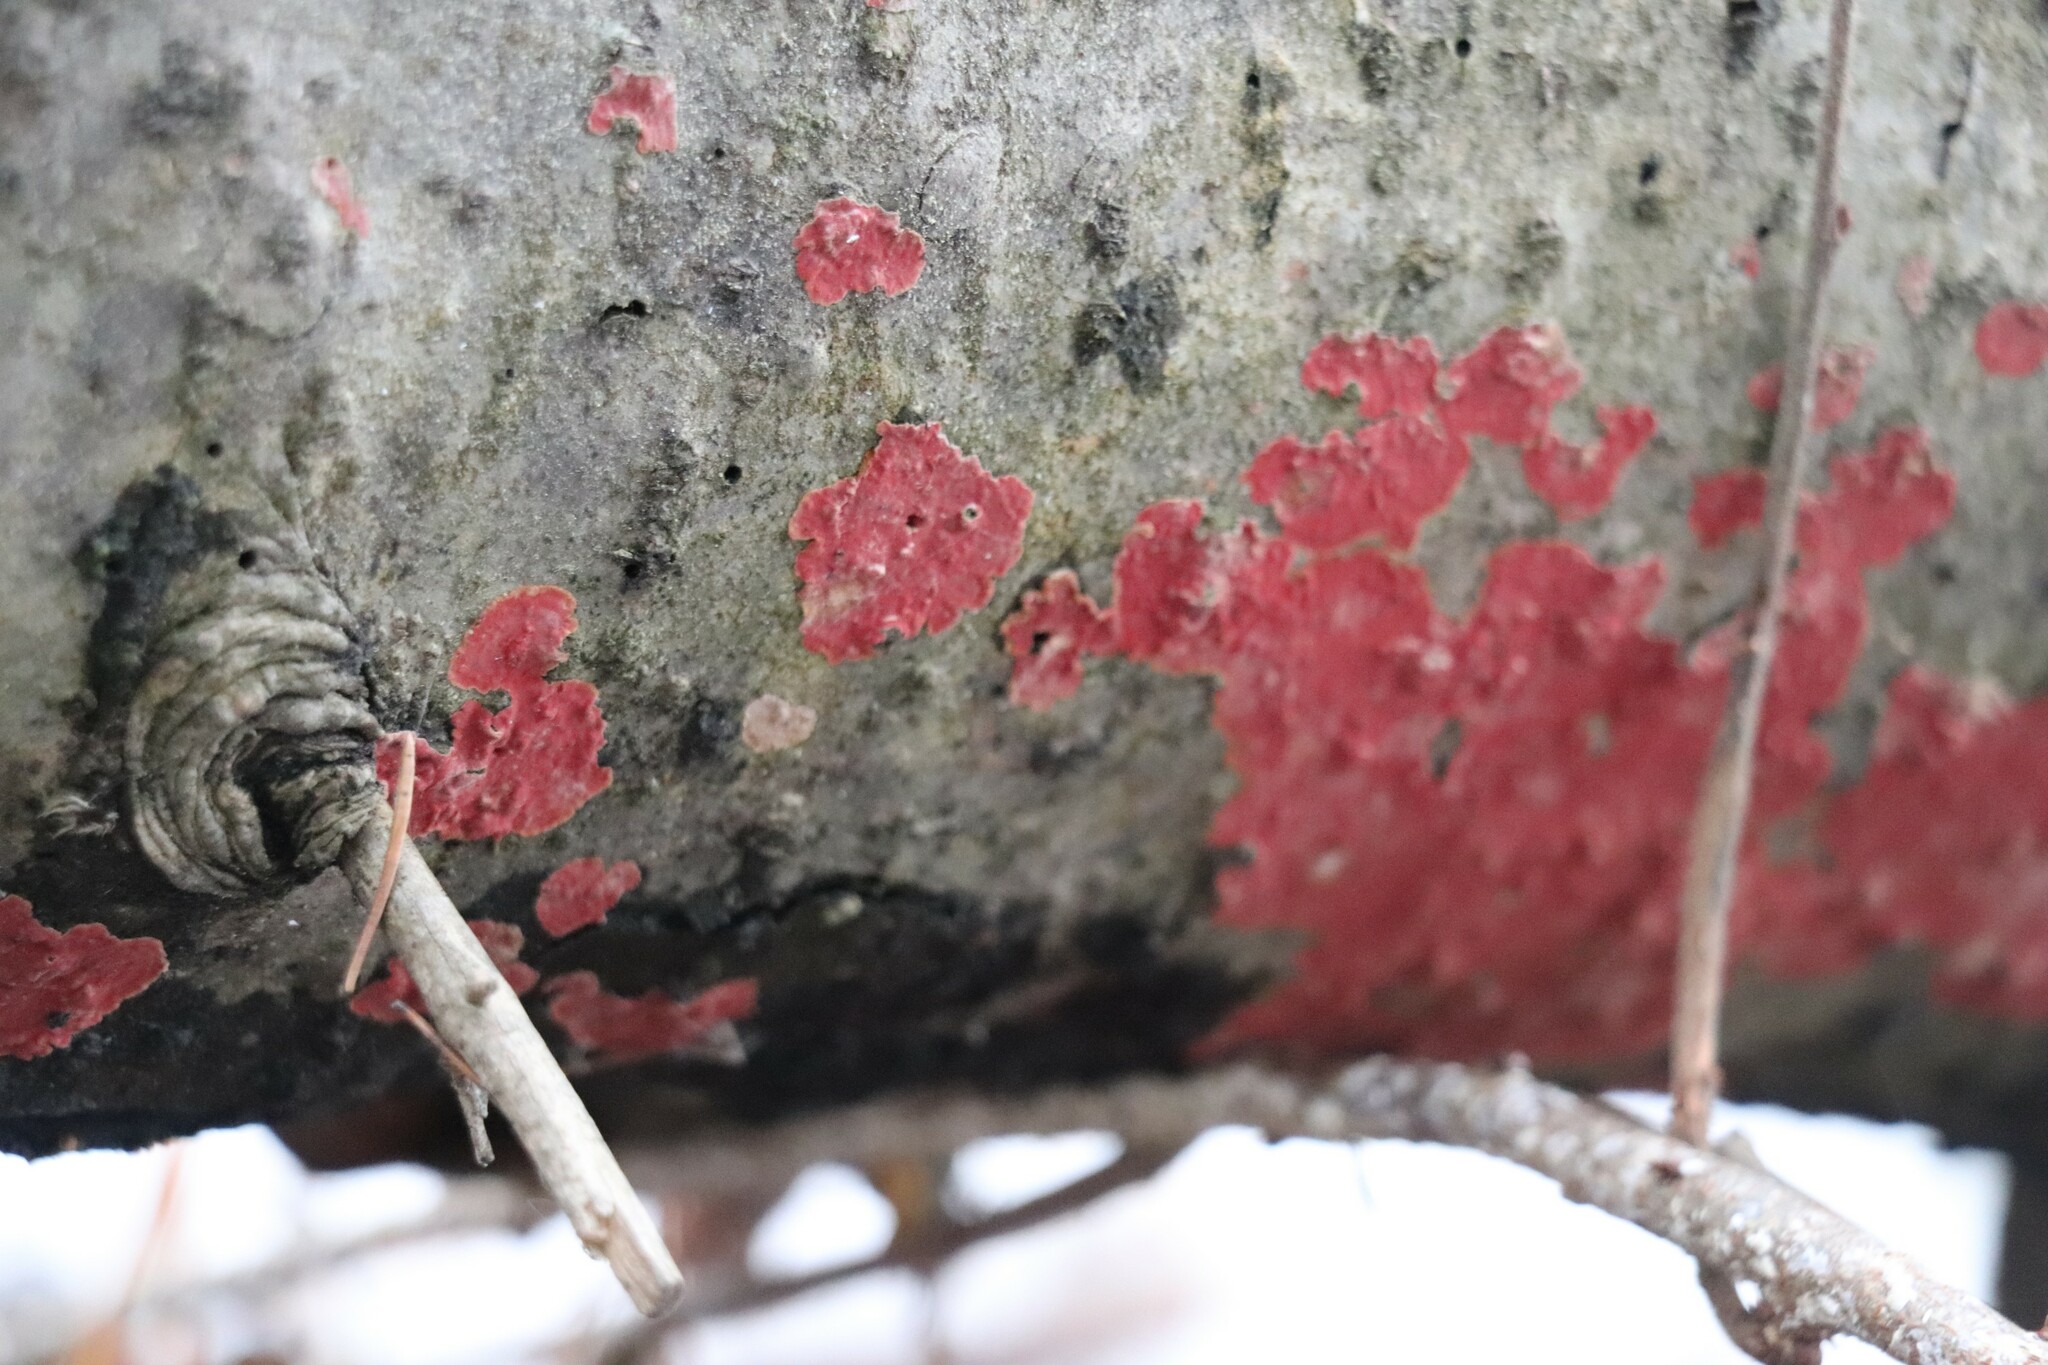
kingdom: Fungi
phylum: Basidiomycota
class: Agaricomycetes
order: Hymenochaetales
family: Hymenochaetaceae
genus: Hymenochaete
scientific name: Hymenochaete cruenta
